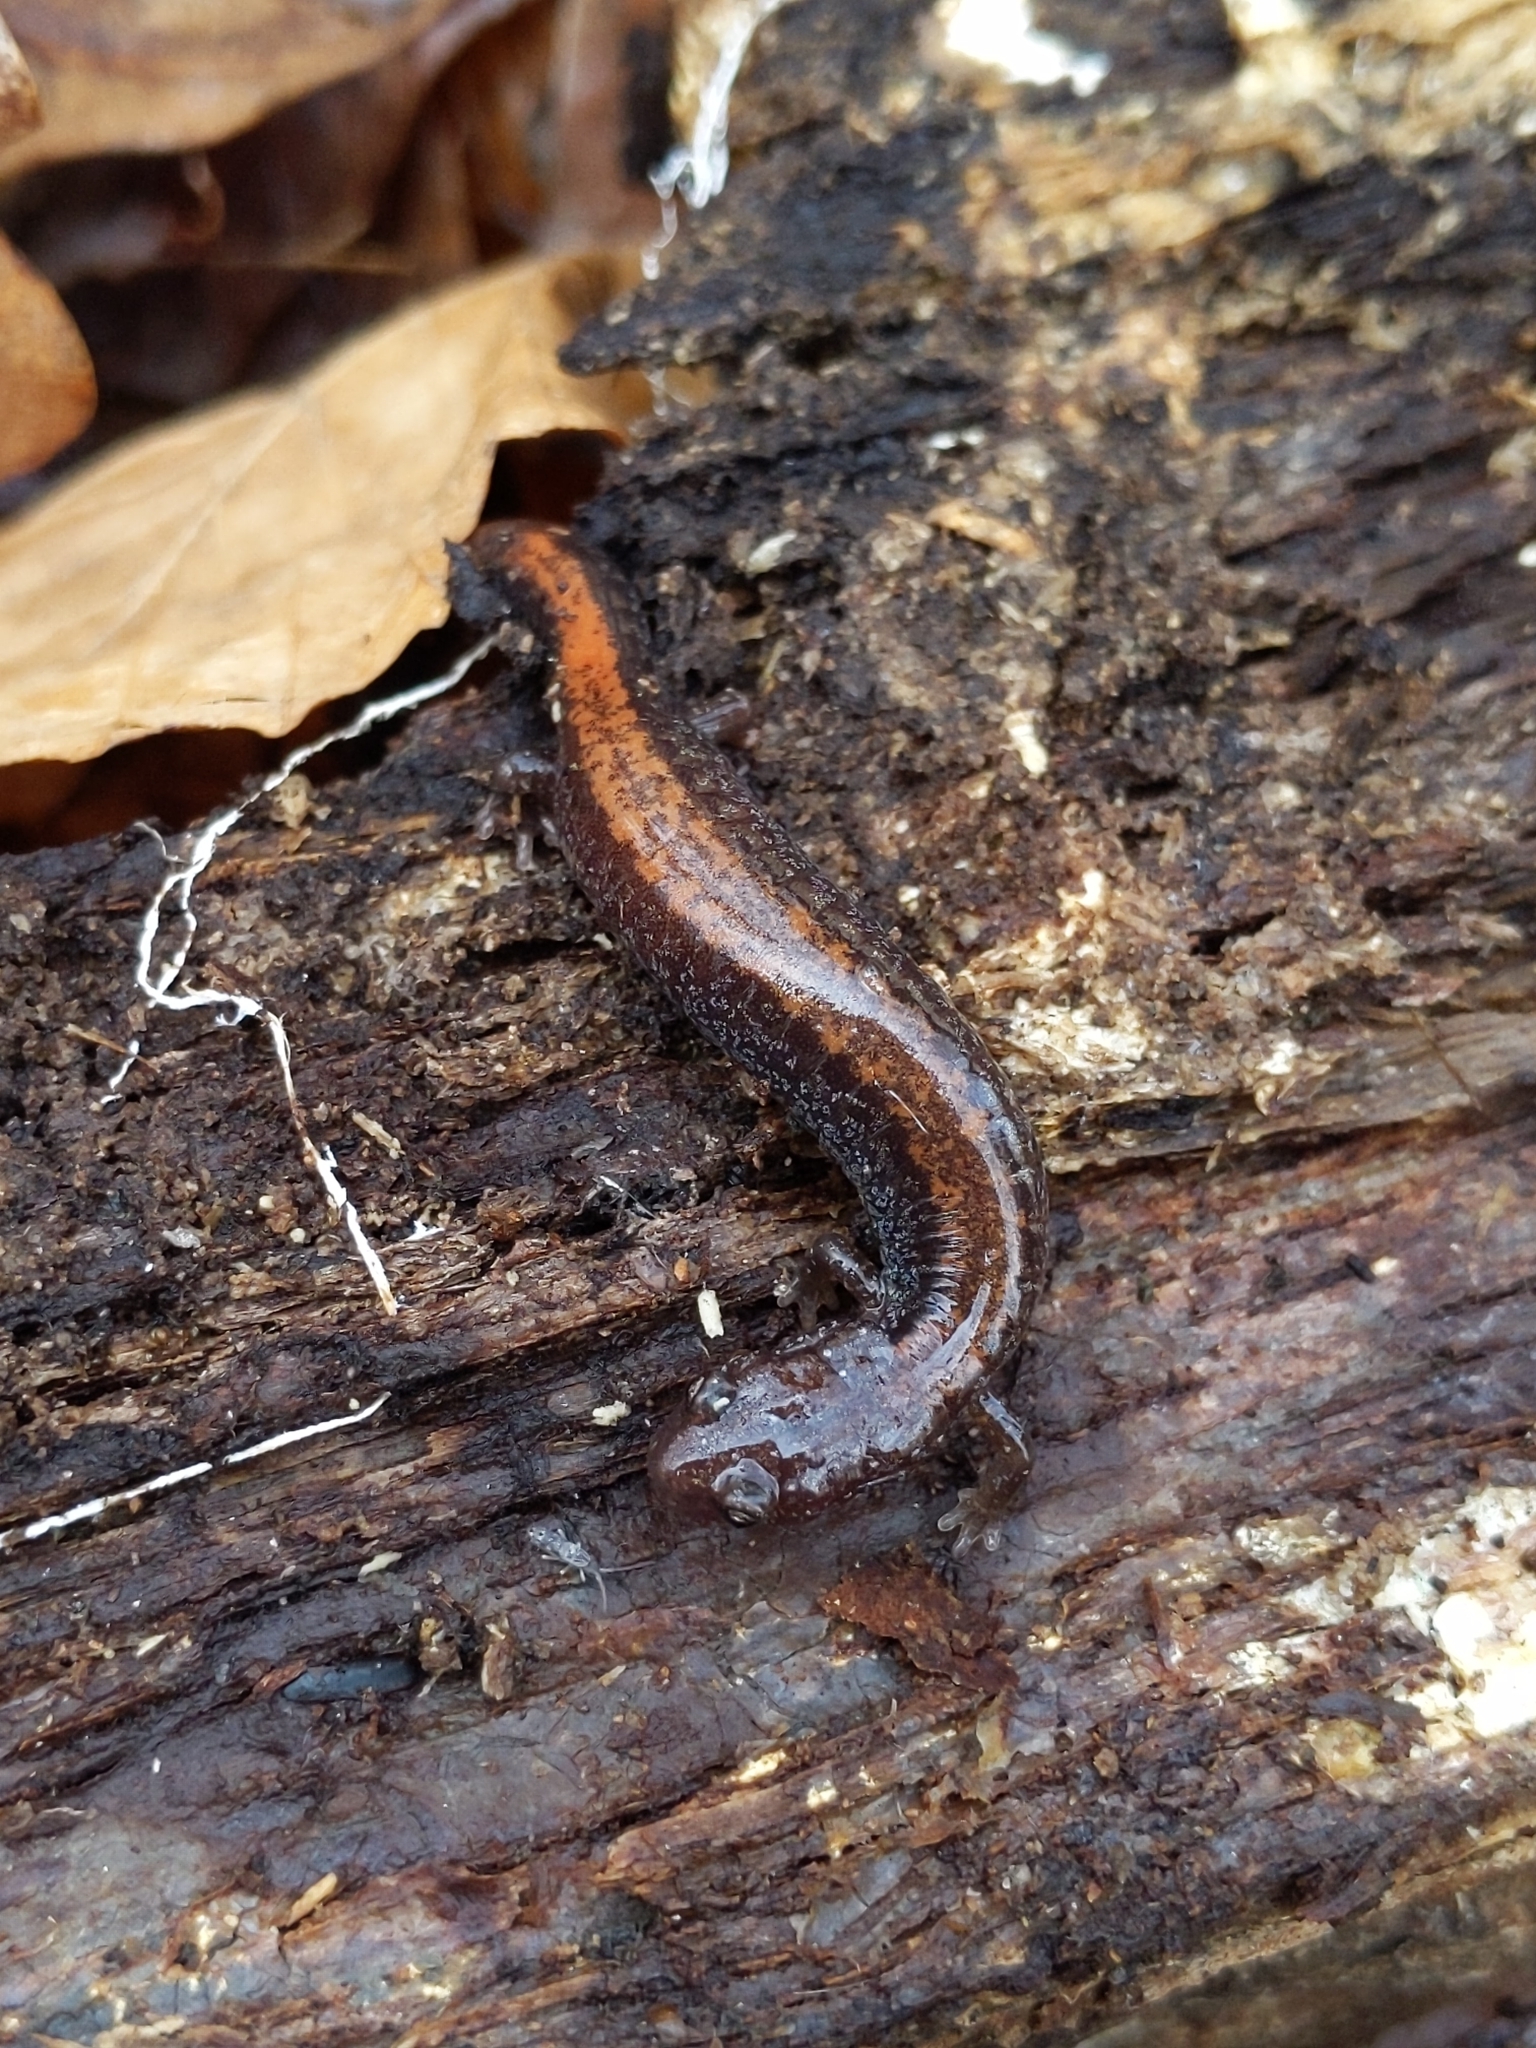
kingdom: Animalia
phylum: Chordata
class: Amphibia
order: Caudata
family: Plethodontidae
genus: Plethodon
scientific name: Plethodon cinereus
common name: Redback salamander
